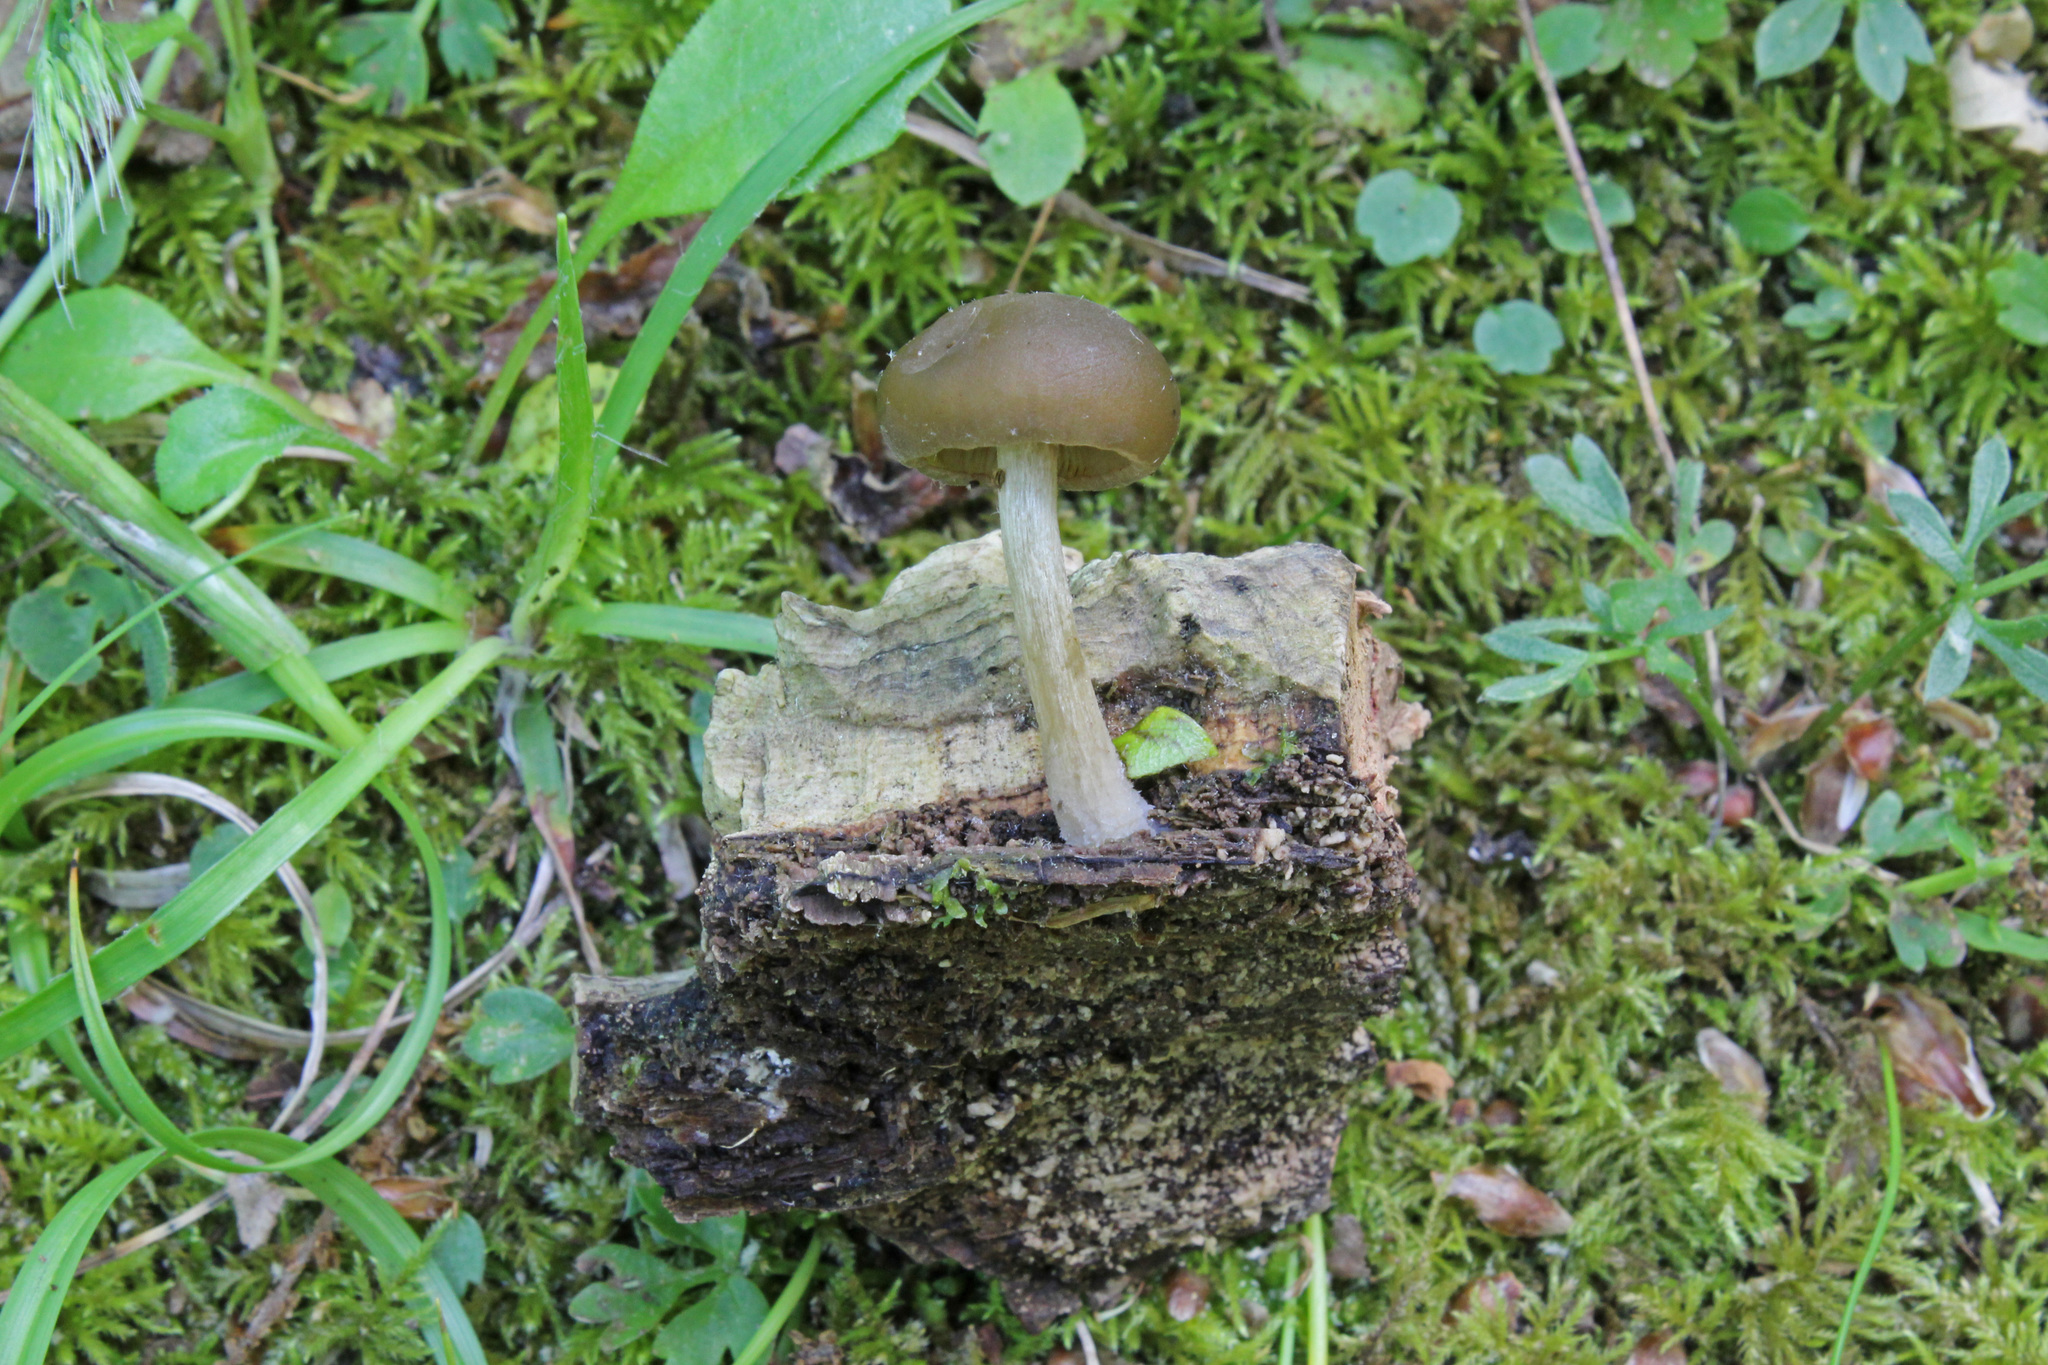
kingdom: Fungi
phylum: Basidiomycota
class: Agaricomycetes
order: Agaricales
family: Crepidotaceae
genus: Simocybe
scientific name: Simocybe sumptuosa
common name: Velvet twiglet
